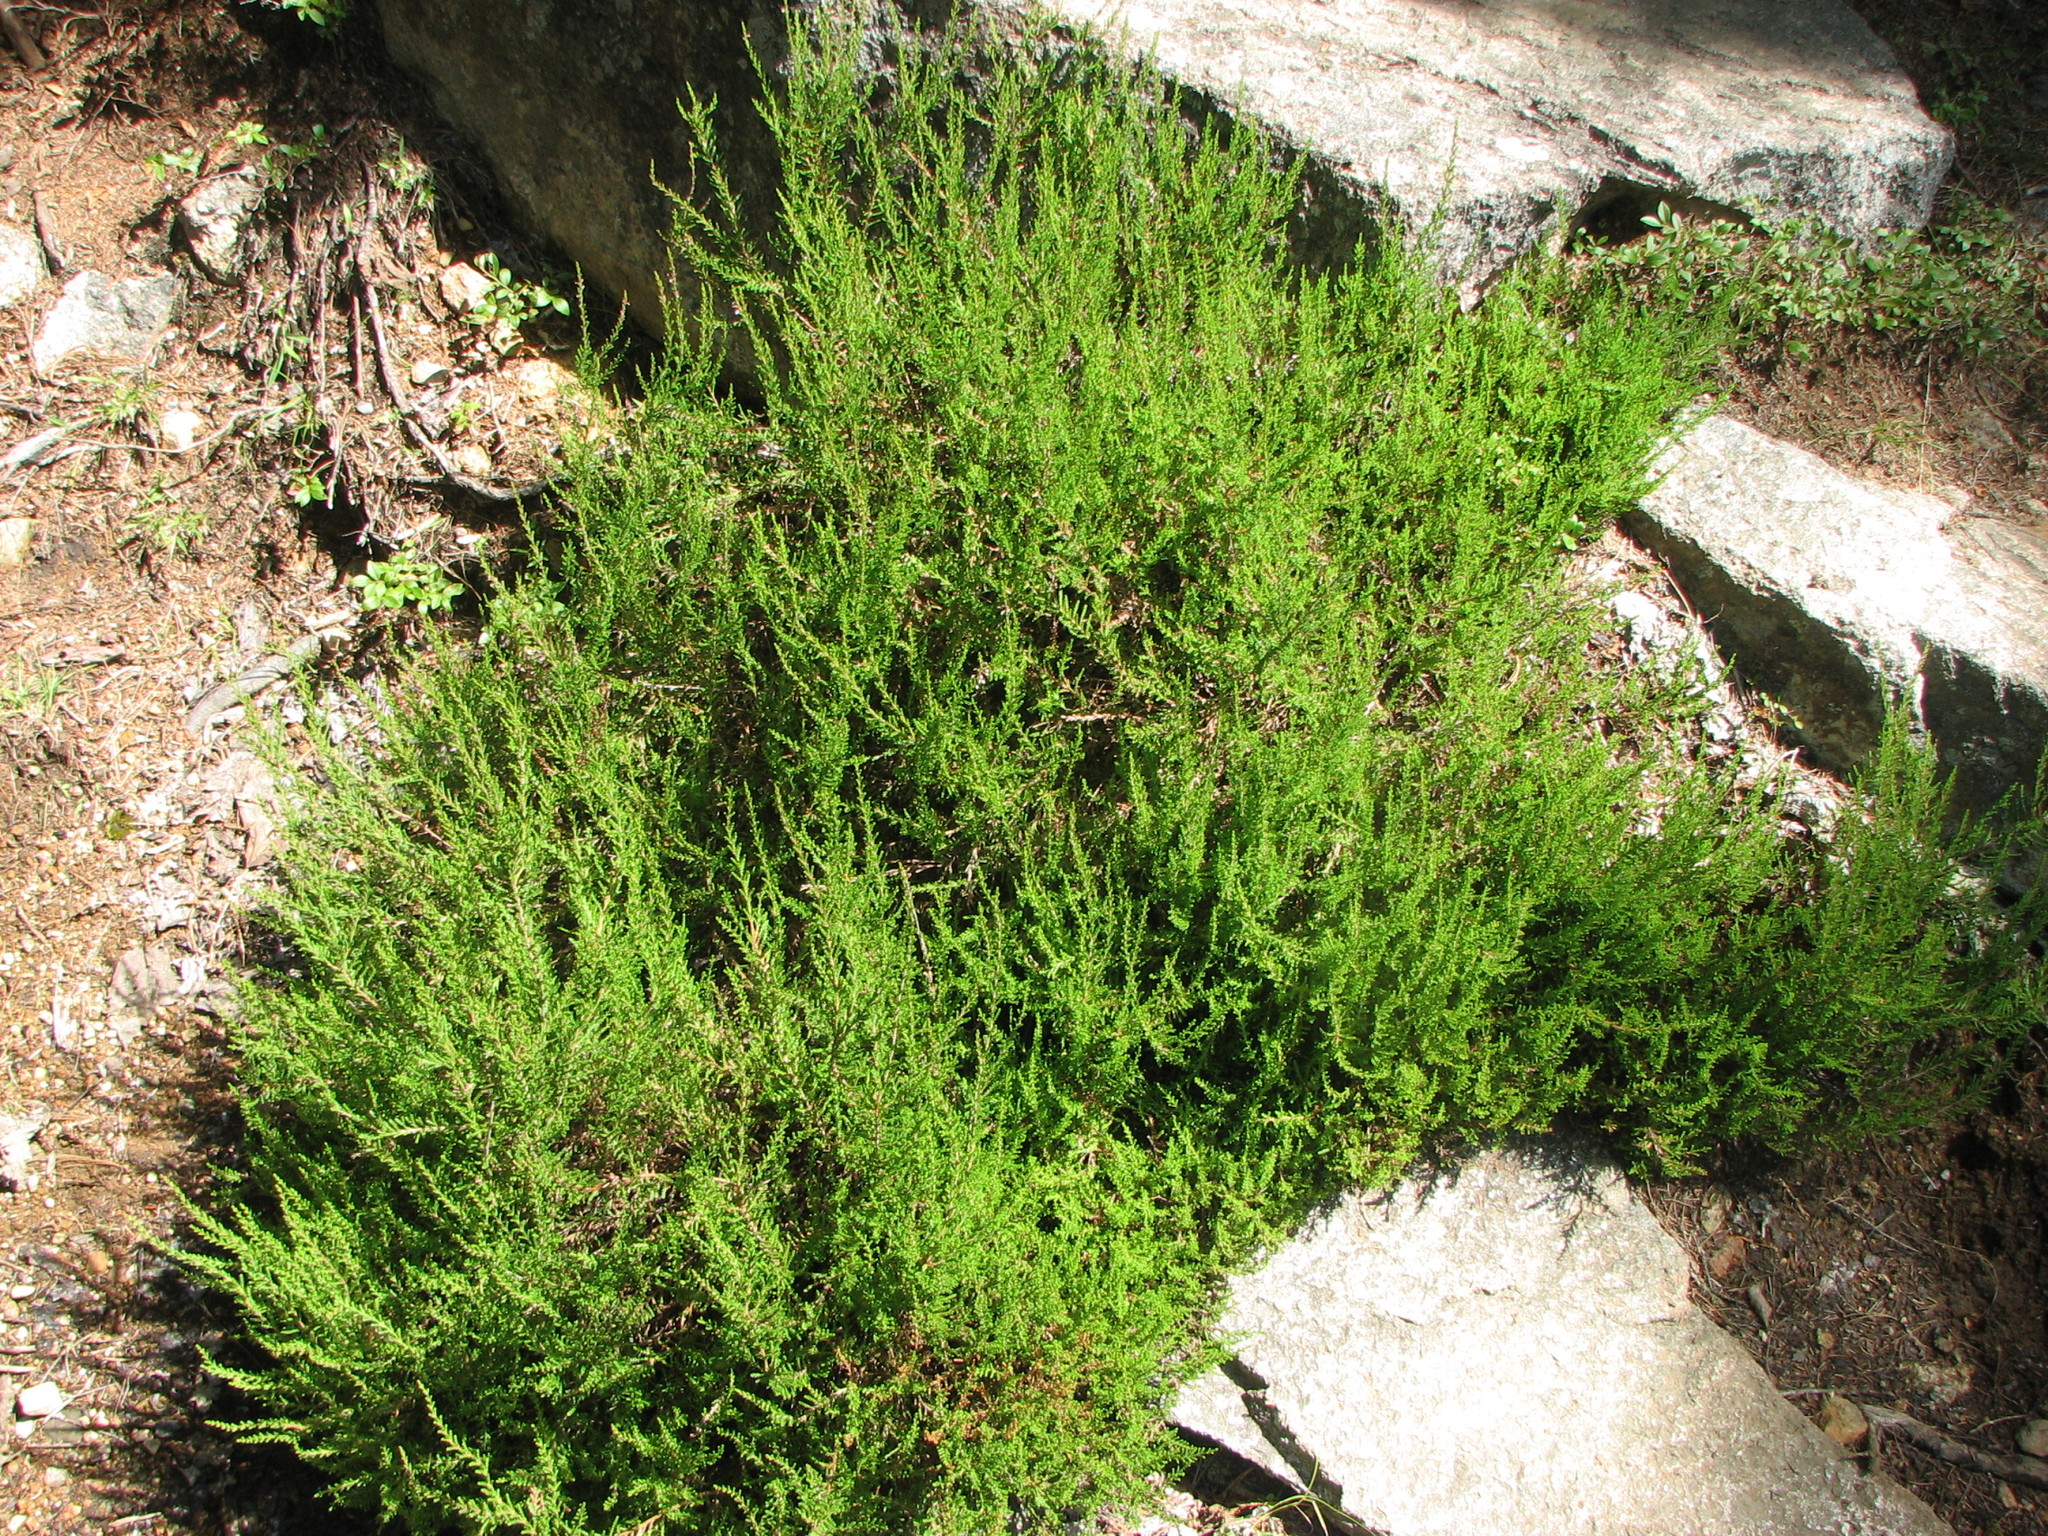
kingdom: Plantae
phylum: Tracheophyta
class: Magnoliopsida
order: Ericales
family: Ericaceae
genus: Calluna
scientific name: Calluna vulgaris
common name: Heather
